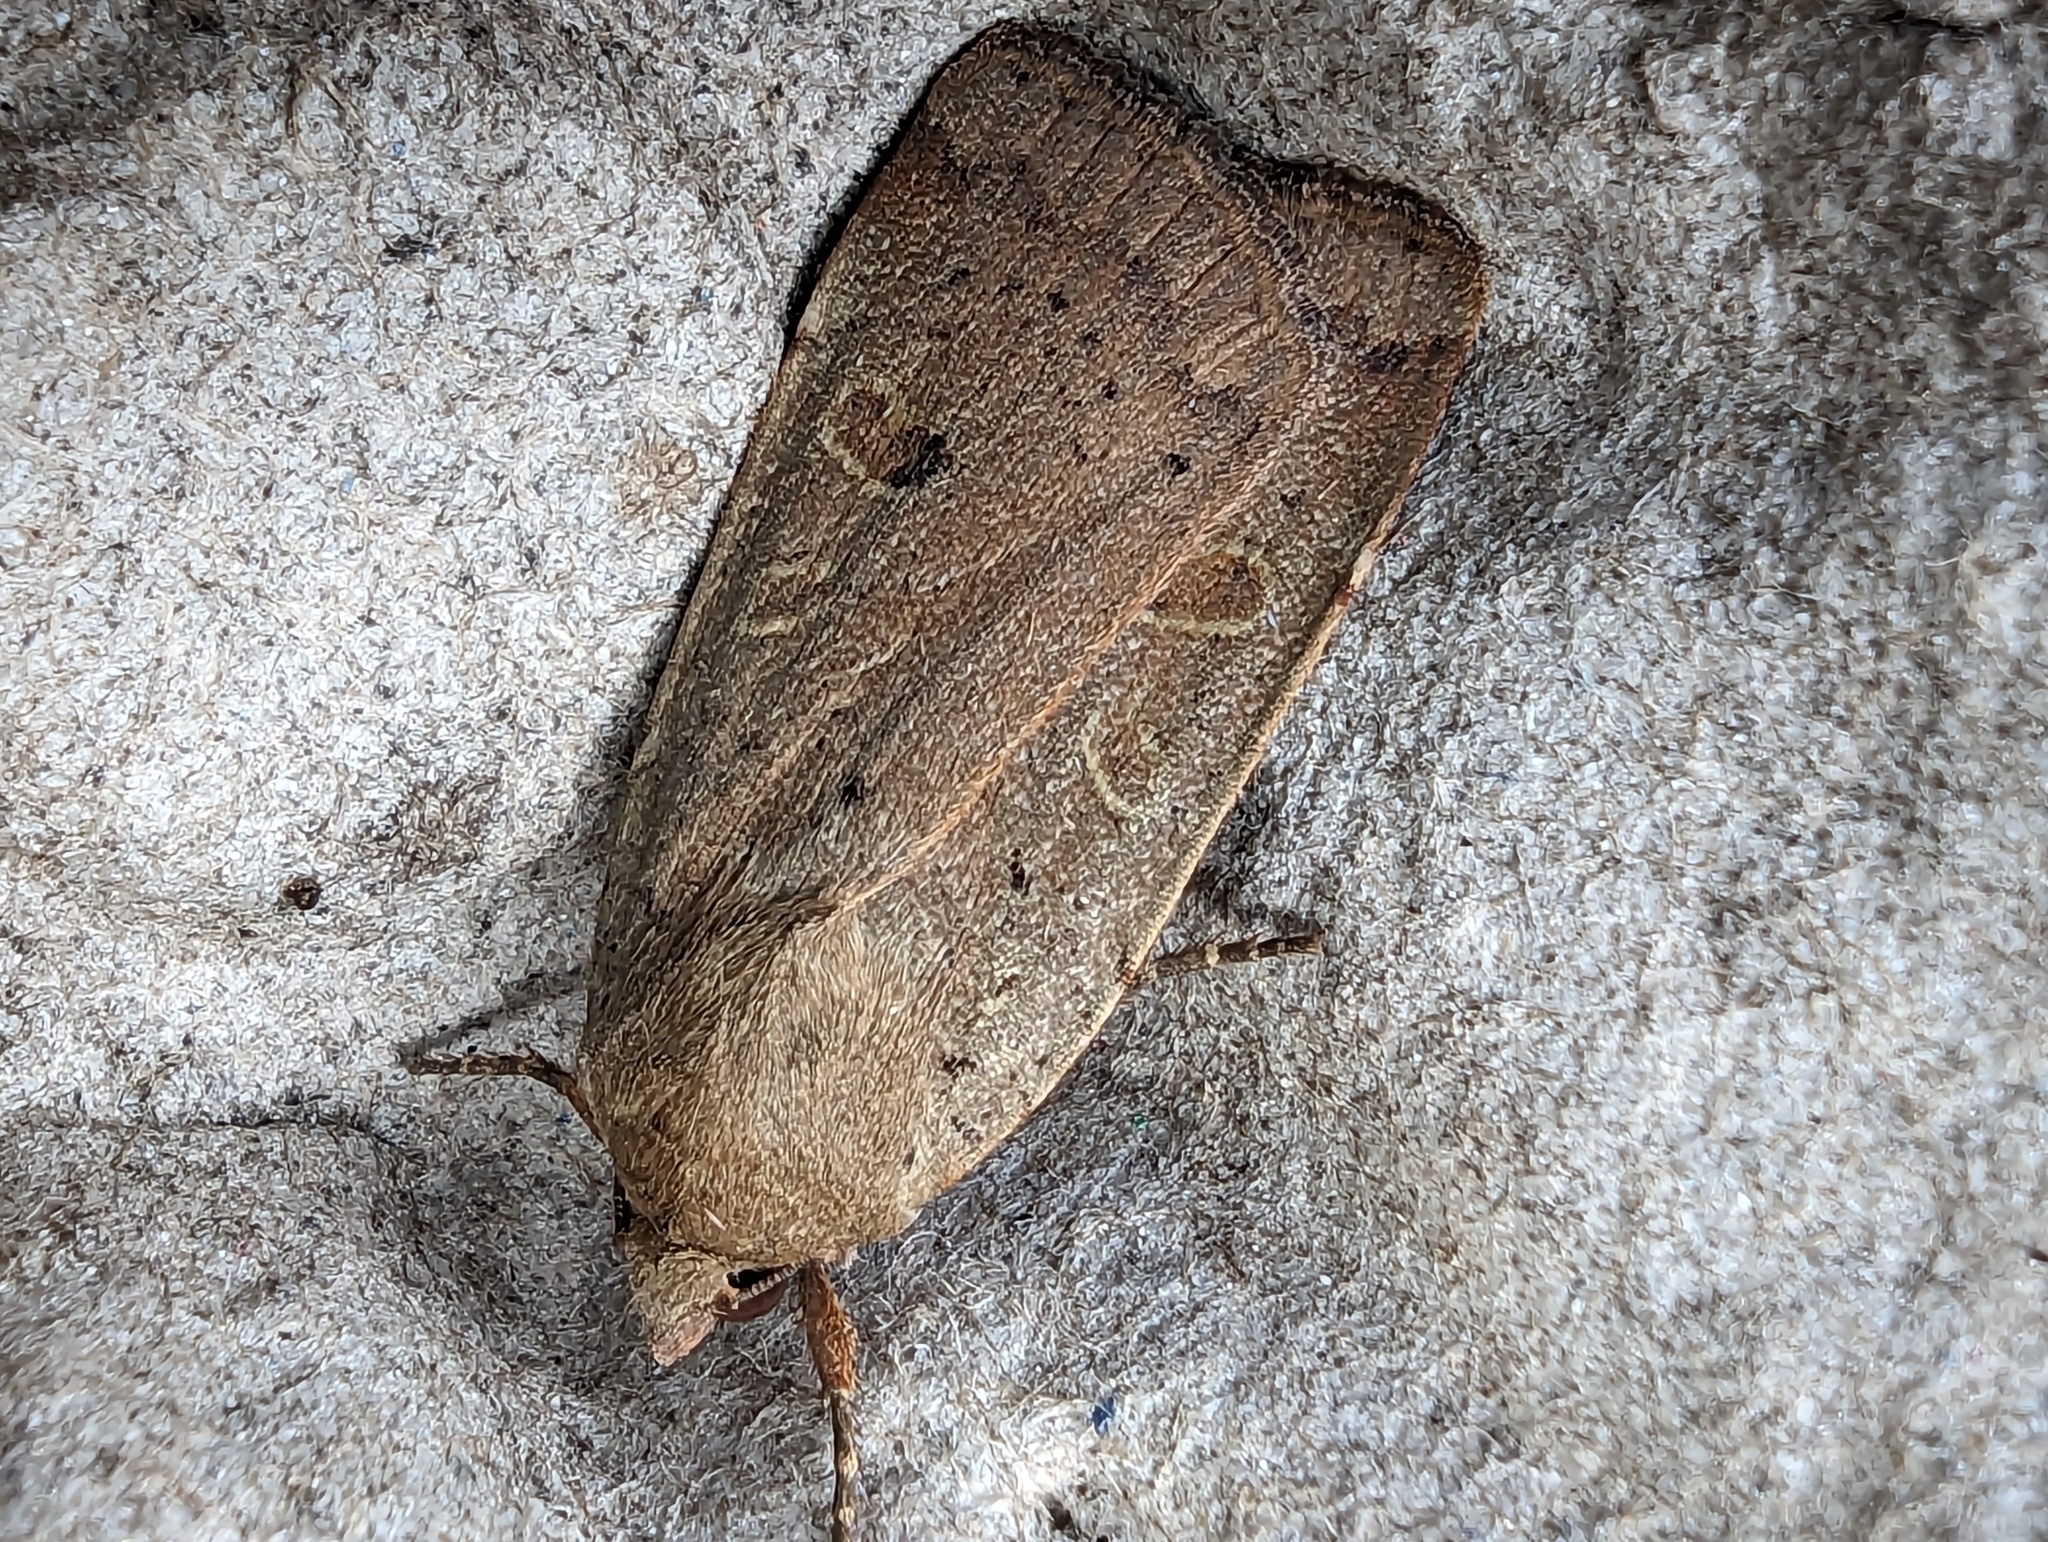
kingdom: Animalia
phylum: Arthropoda
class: Insecta
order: Lepidoptera
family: Noctuidae
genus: Noctua
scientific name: Noctua comes
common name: Lesser yellow underwing
